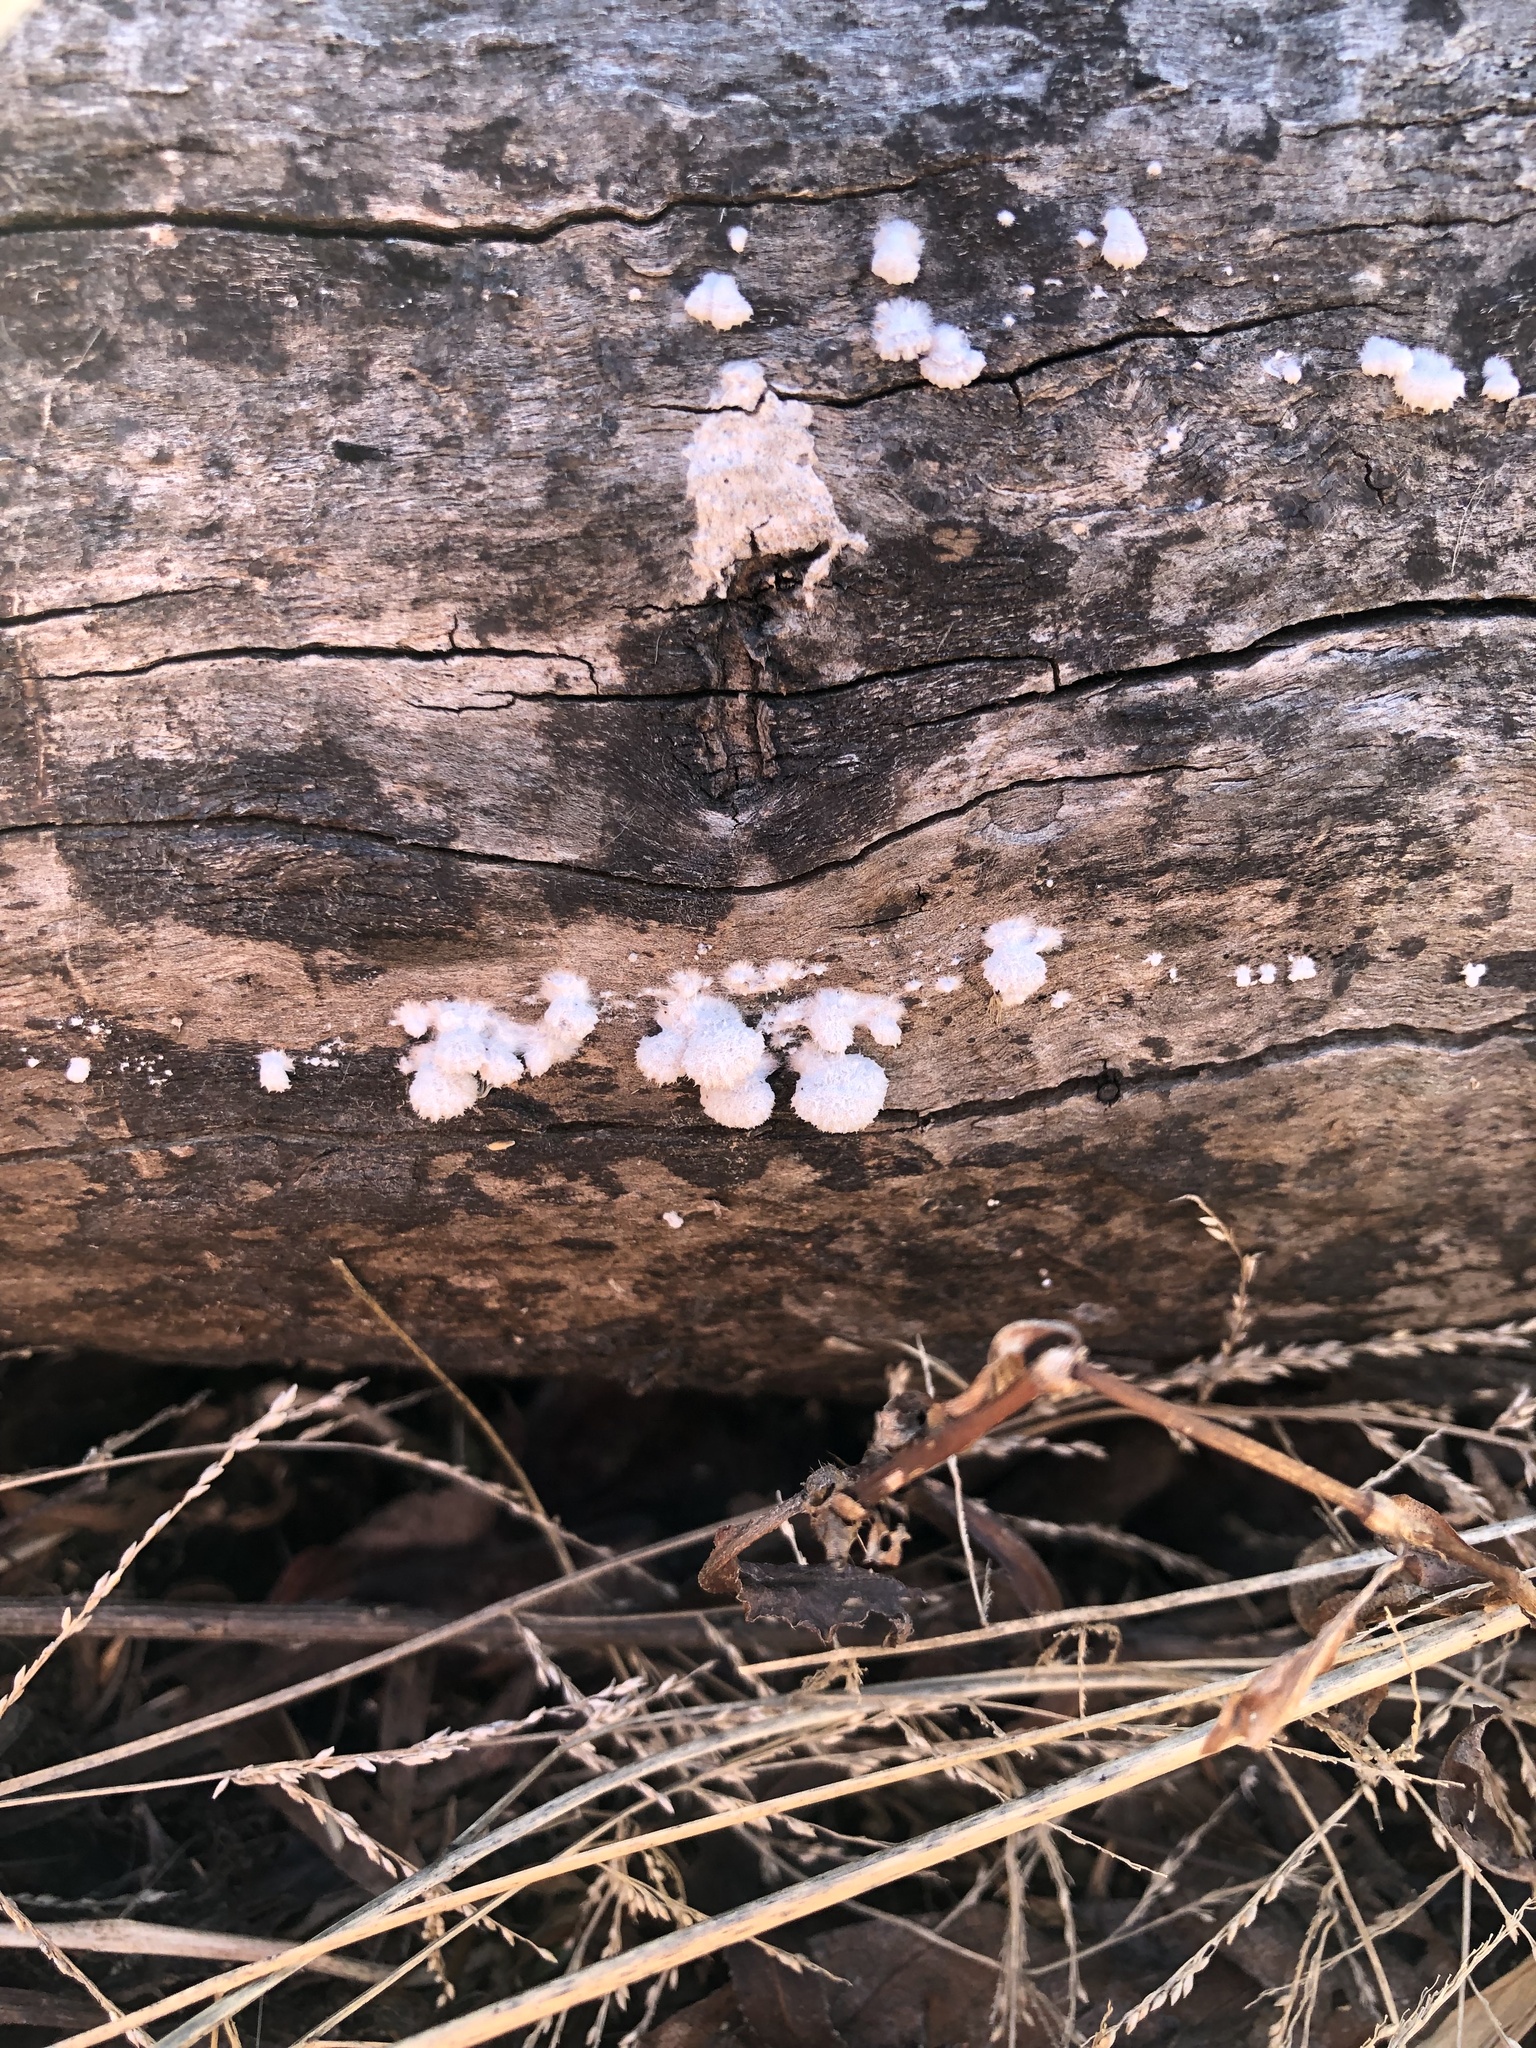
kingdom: Fungi
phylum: Basidiomycota
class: Agaricomycetes
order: Agaricales
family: Schizophyllaceae
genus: Schizophyllum
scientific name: Schizophyllum commune
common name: Common porecrust
